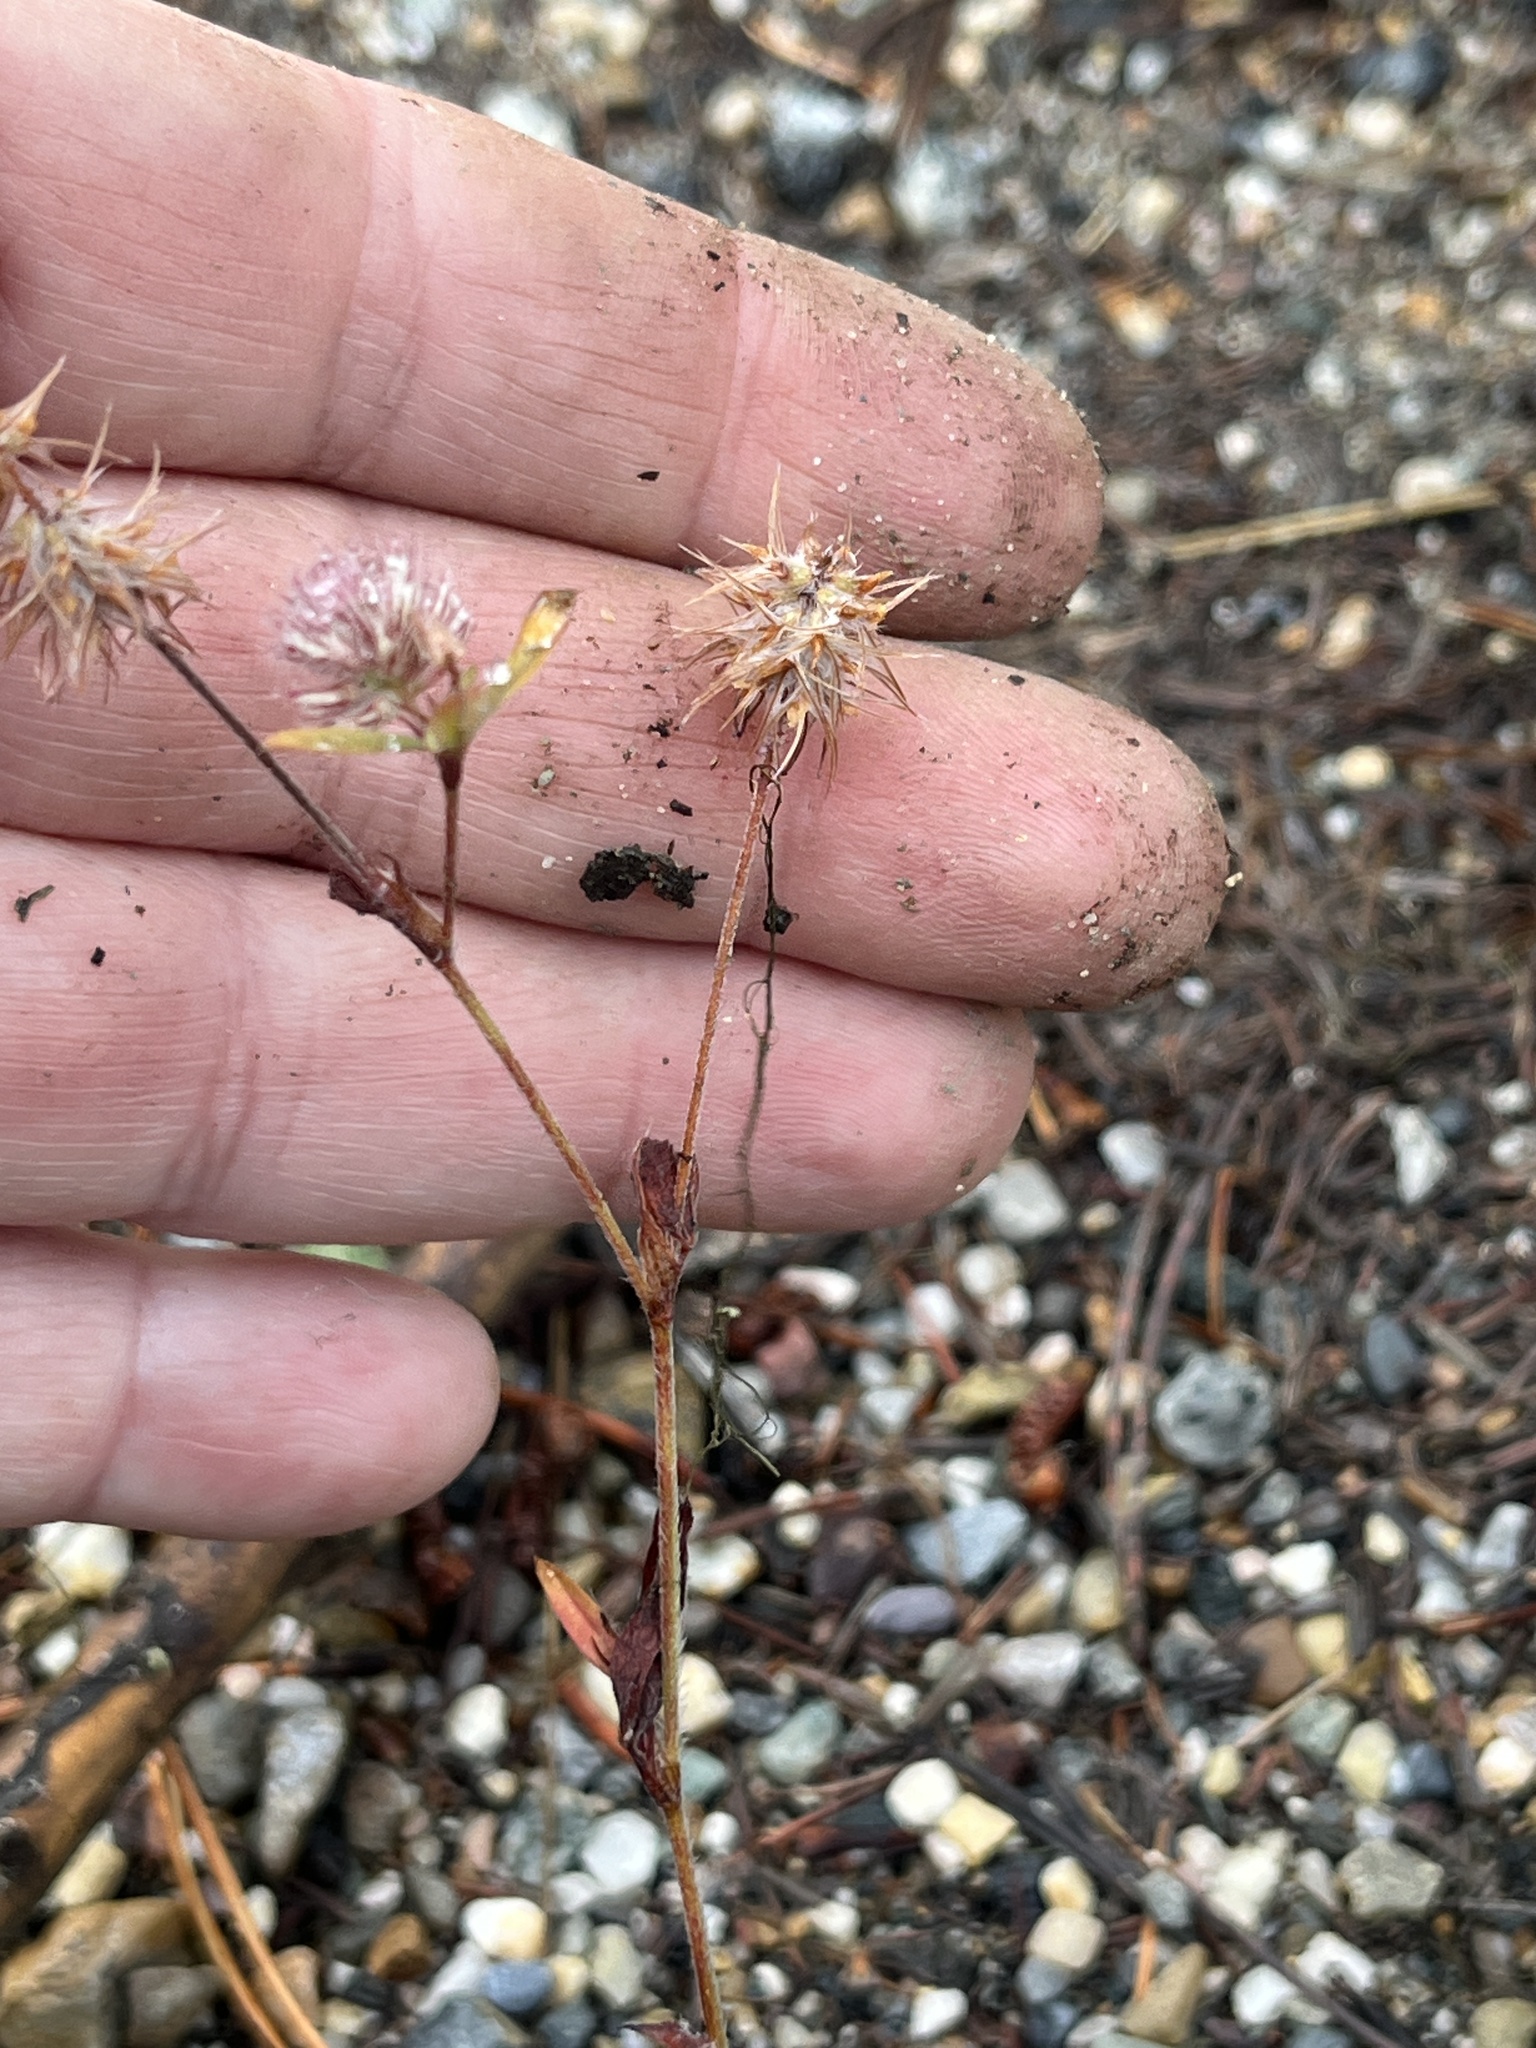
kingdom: Plantae
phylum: Tracheophyta
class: Magnoliopsida
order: Fabales
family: Fabaceae
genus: Trifolium
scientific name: Trifolium arvense
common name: Hare's-foot clover
